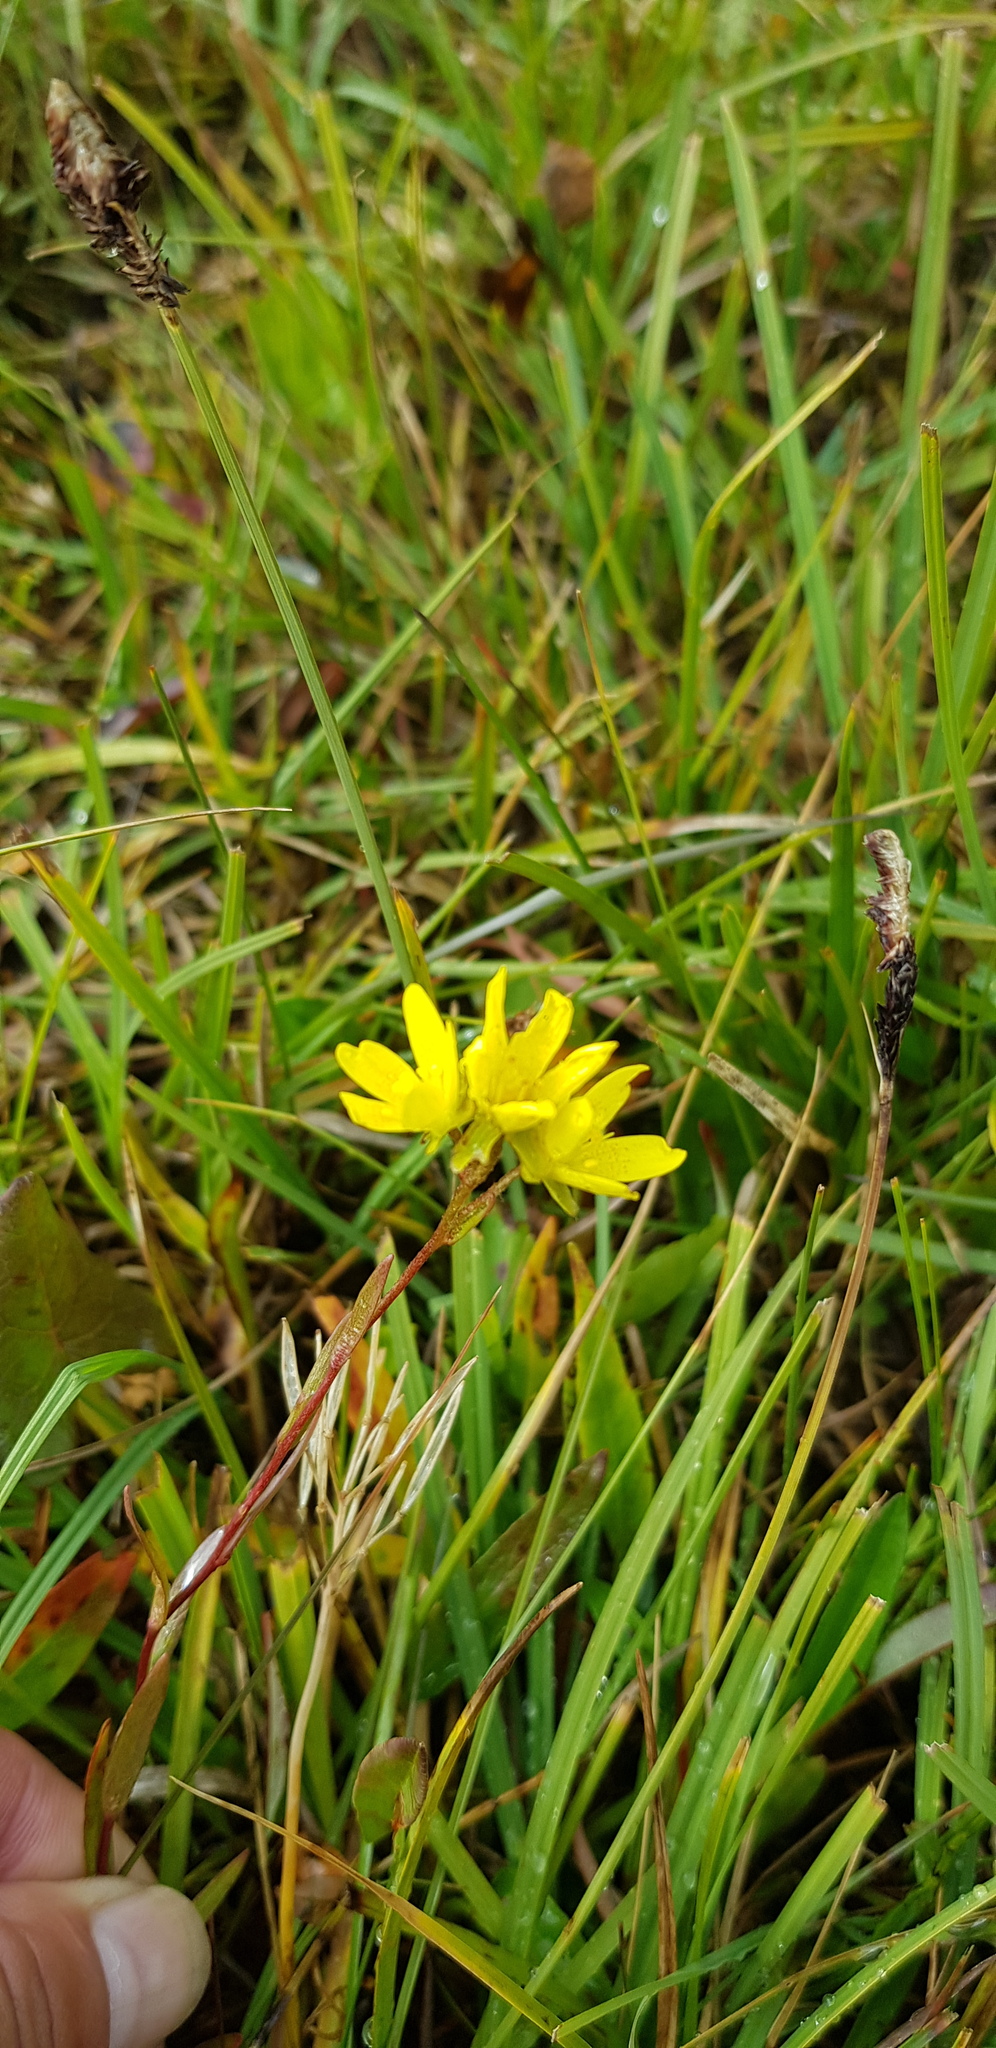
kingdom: Plantae
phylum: Tracheophyta
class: Magnoliopsida
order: Saxifragales
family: Saxifragaceae
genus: Saxifraga
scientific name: Saxifraga hirculus
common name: Yellow marsh saxifrage
